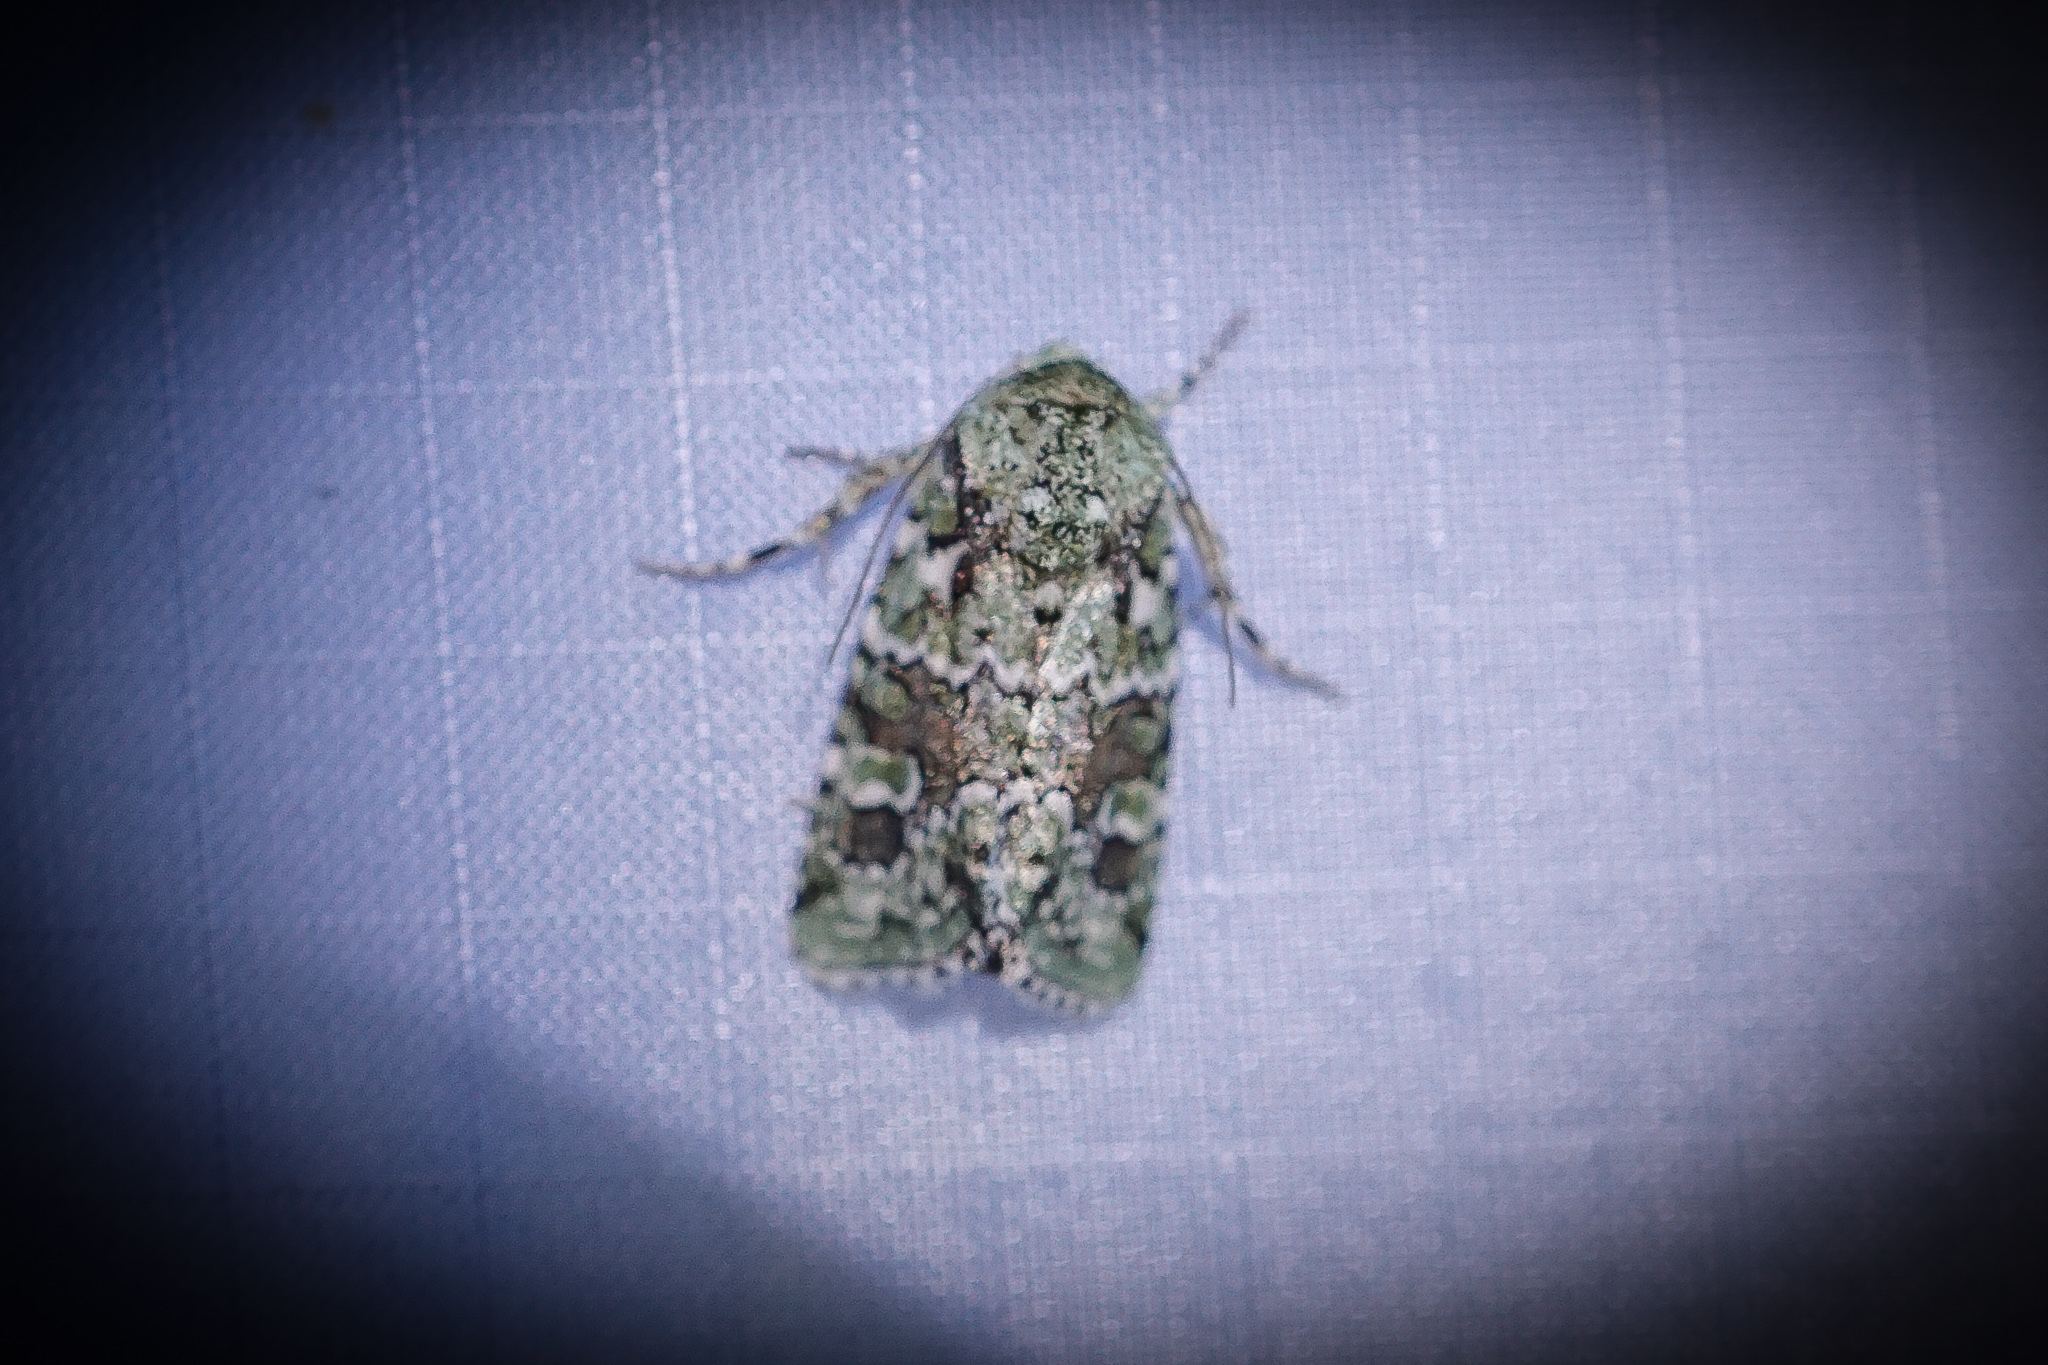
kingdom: Animalia
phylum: Arthropoda
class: Insecta
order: Lepidoptera
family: Noctuidae
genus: Lacinipolia
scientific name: Lacinipolia laudabilis
